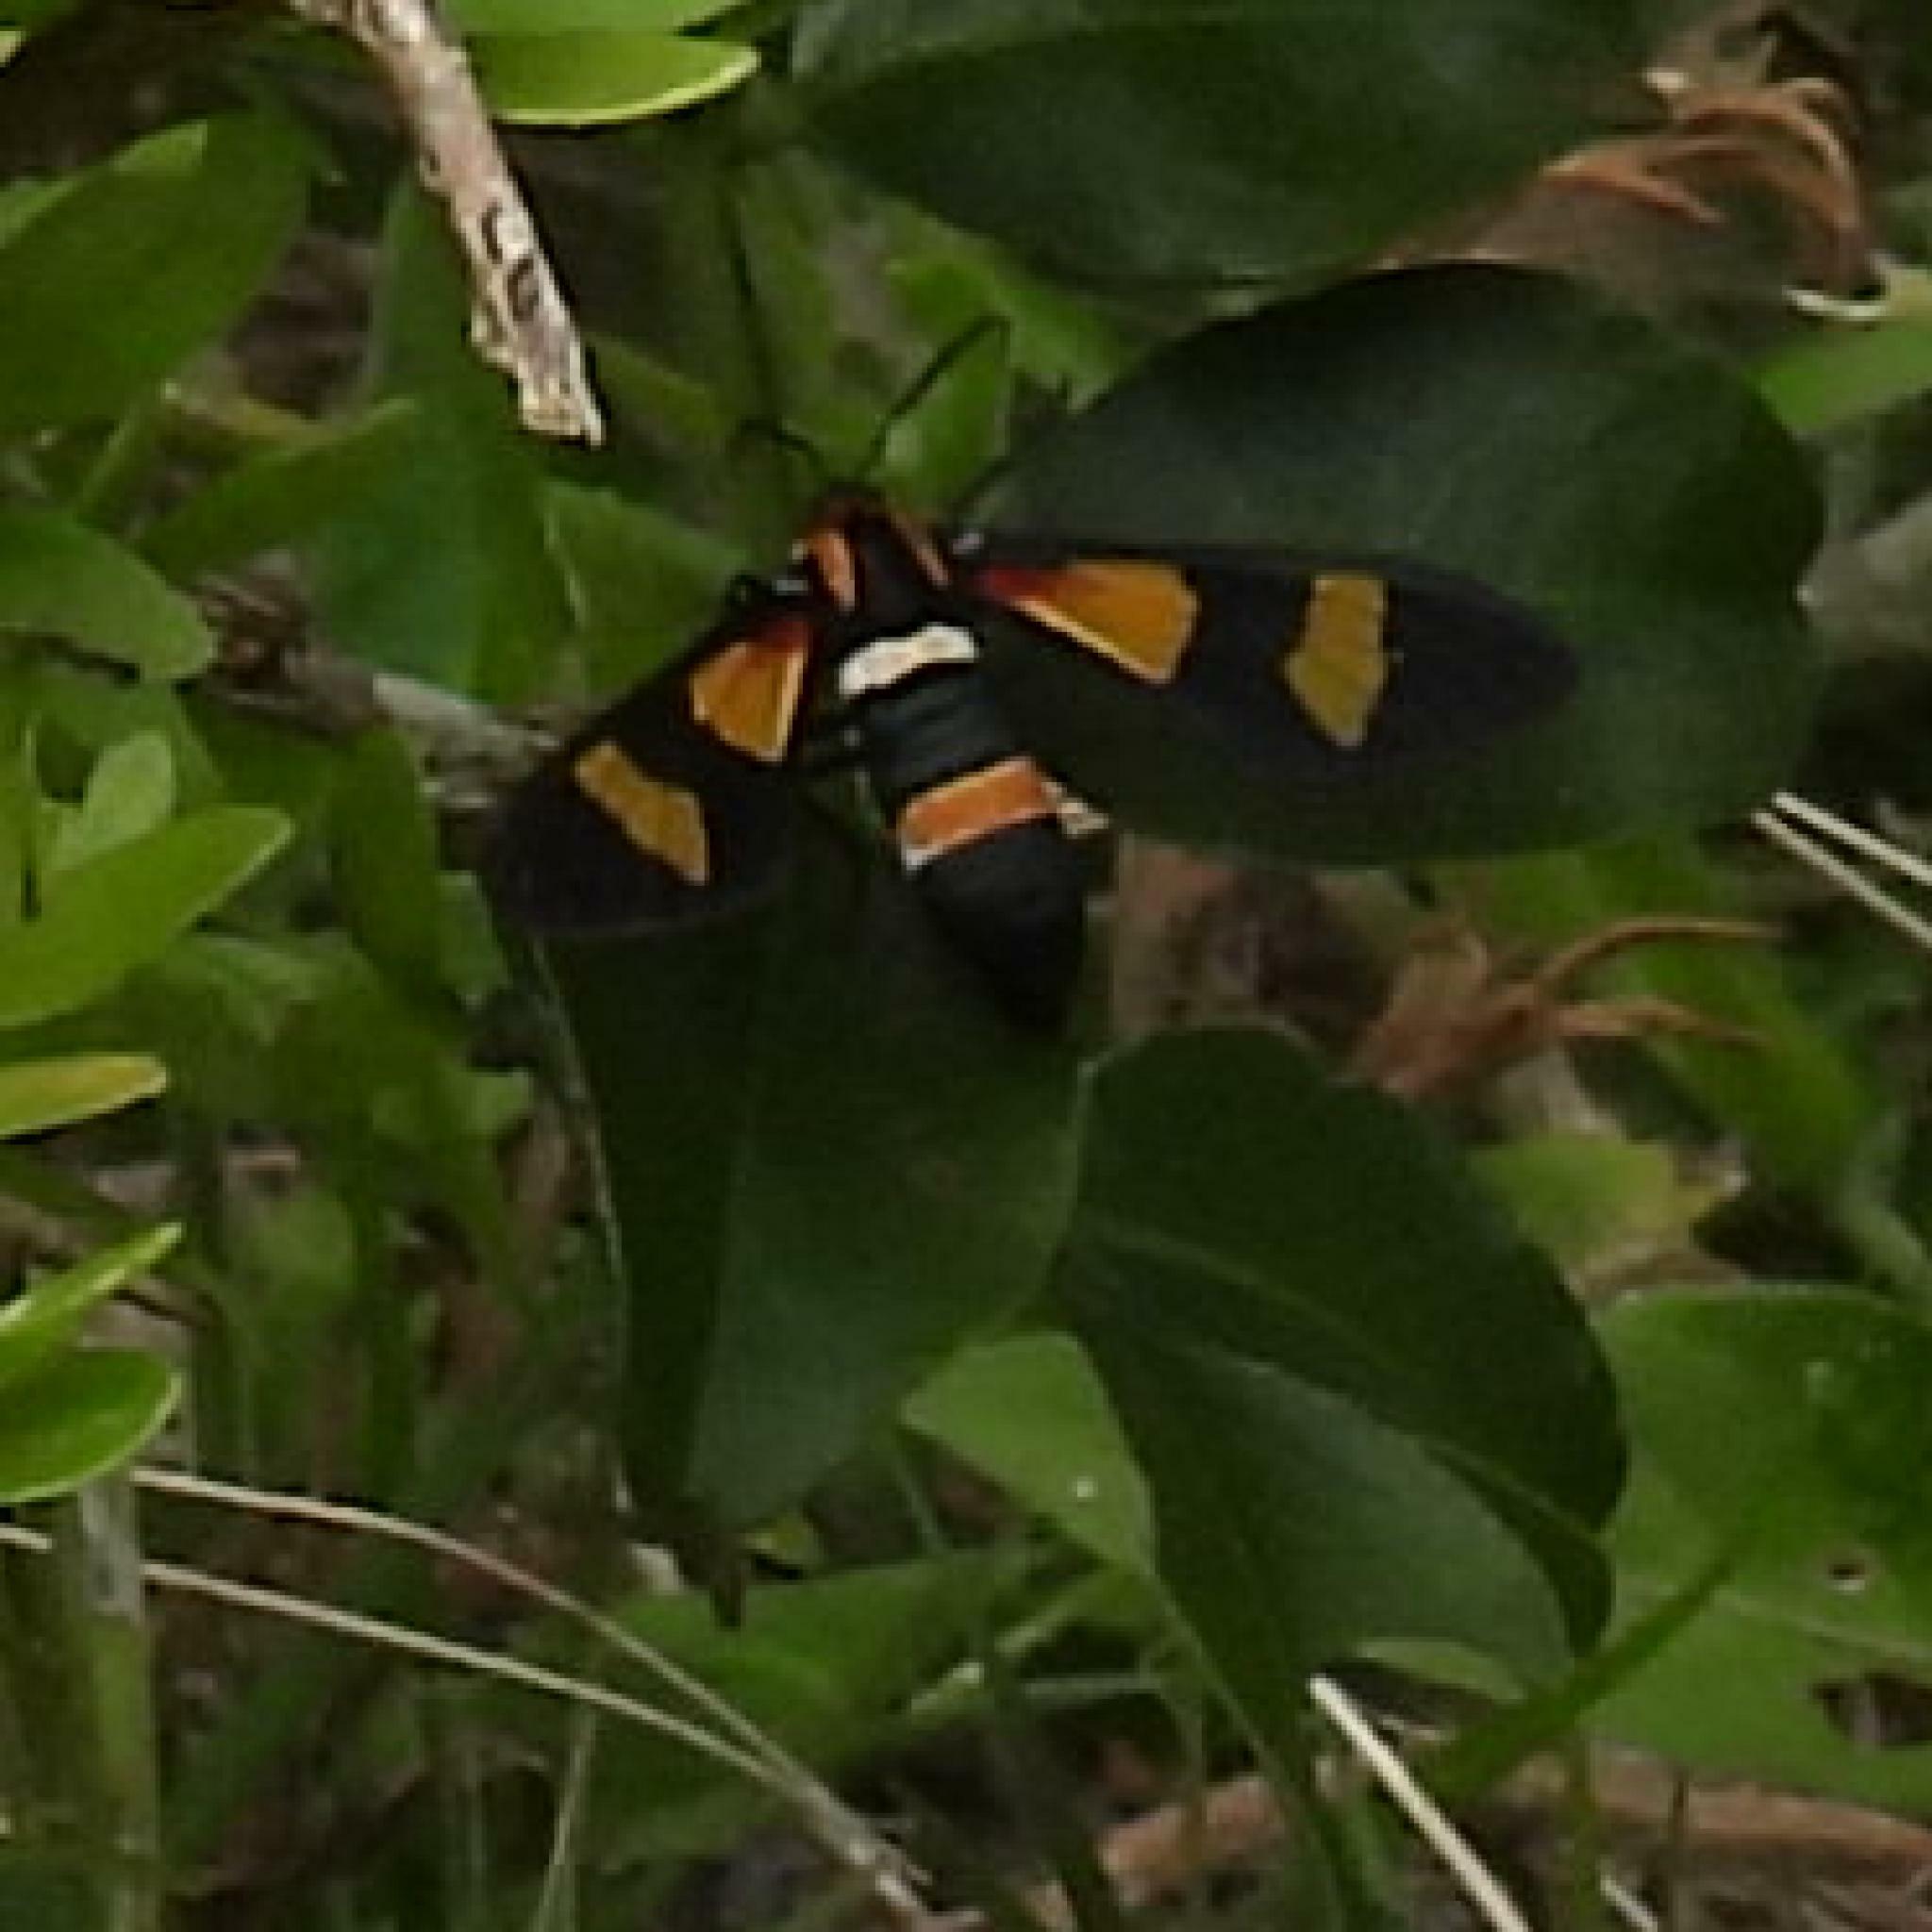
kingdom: Animalia
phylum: Arthropoda
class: Insecta
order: Lepidoptera
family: Erebidae
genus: Euchromia
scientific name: Euchromia amoena
